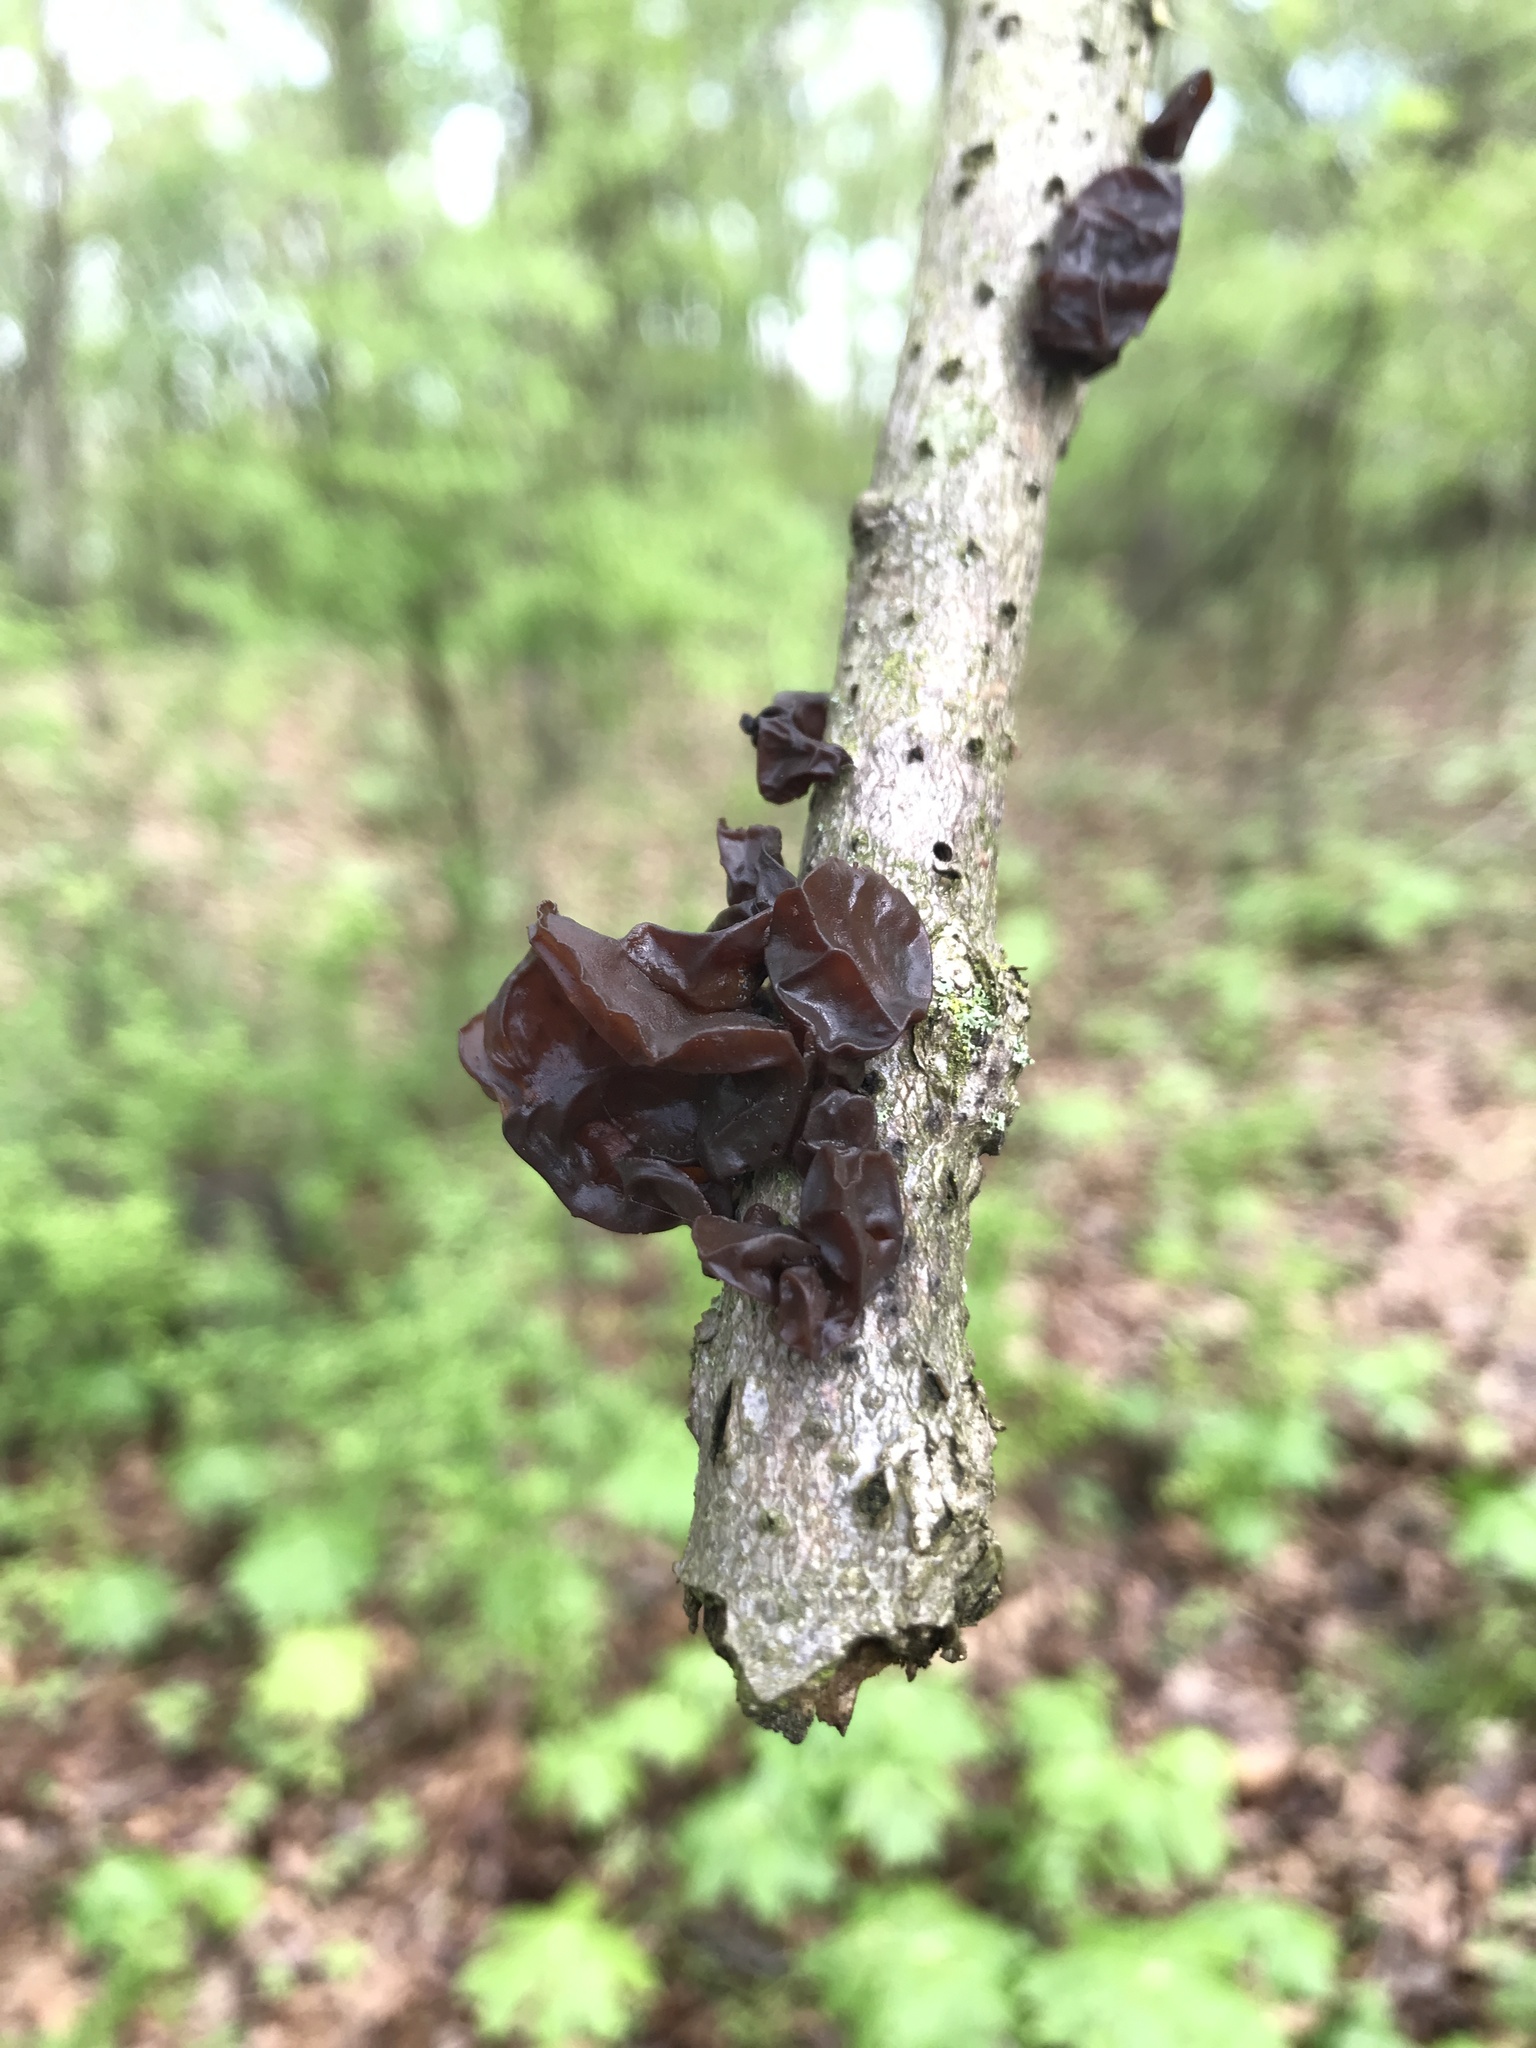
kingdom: Fungi
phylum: Basidiomycota
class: Agaricomycetes
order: Auriculariales
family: Auriculariaceae
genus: Exidia
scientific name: Exidia
